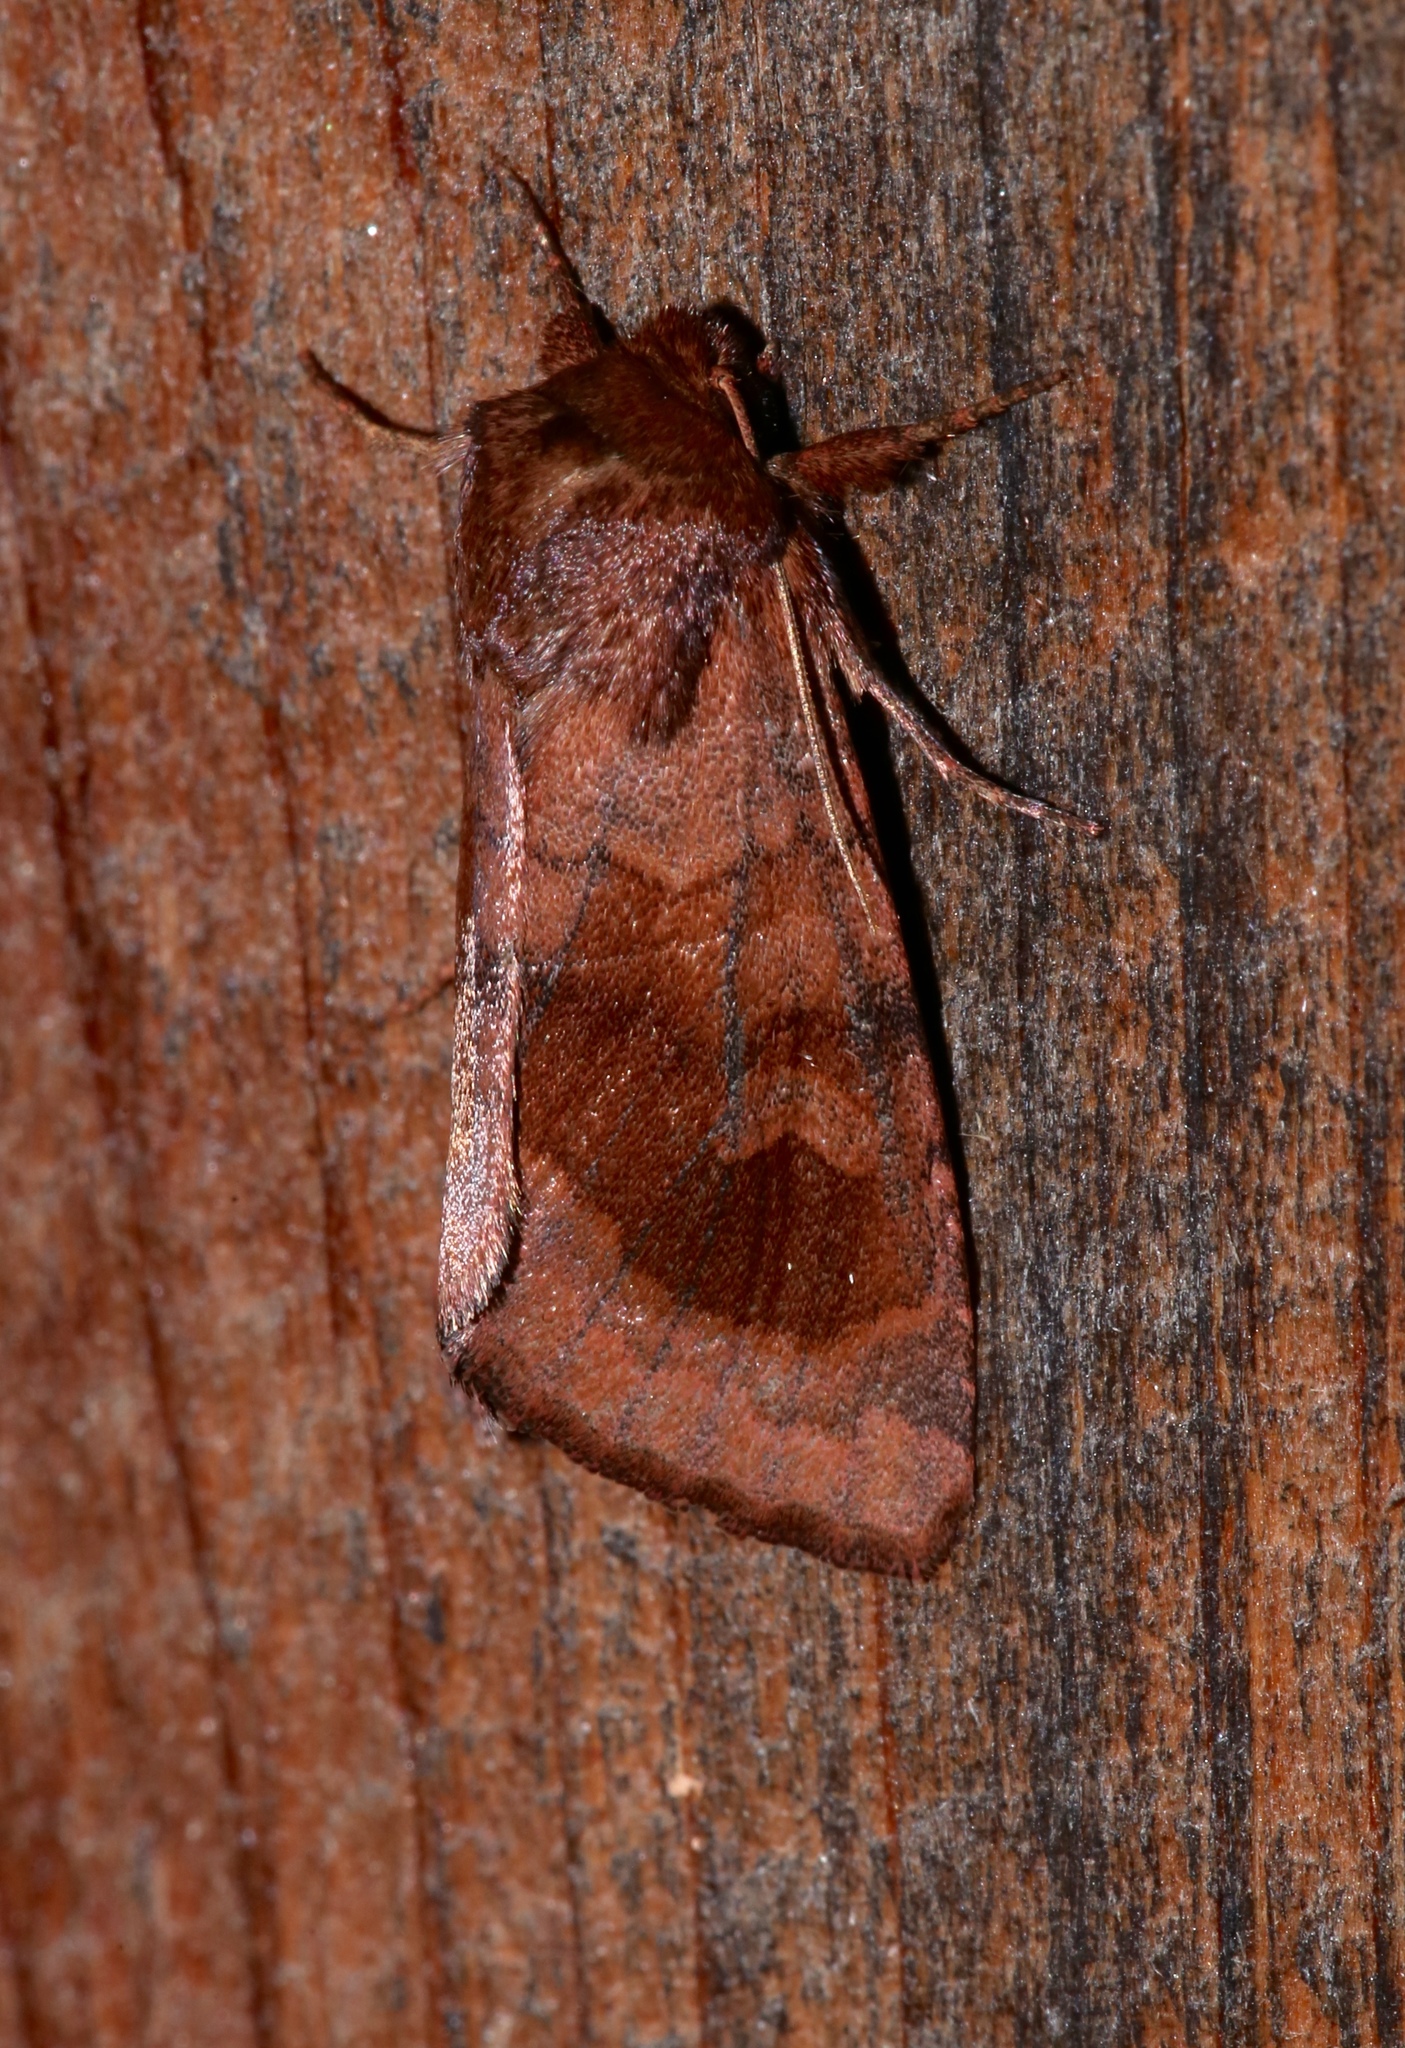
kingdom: Animalia
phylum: Arthropoda
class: Insecta
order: Lepidoptera
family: Noctuidae
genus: Nephelodes
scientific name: Nephelodes minians
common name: Bronzed cutworm
